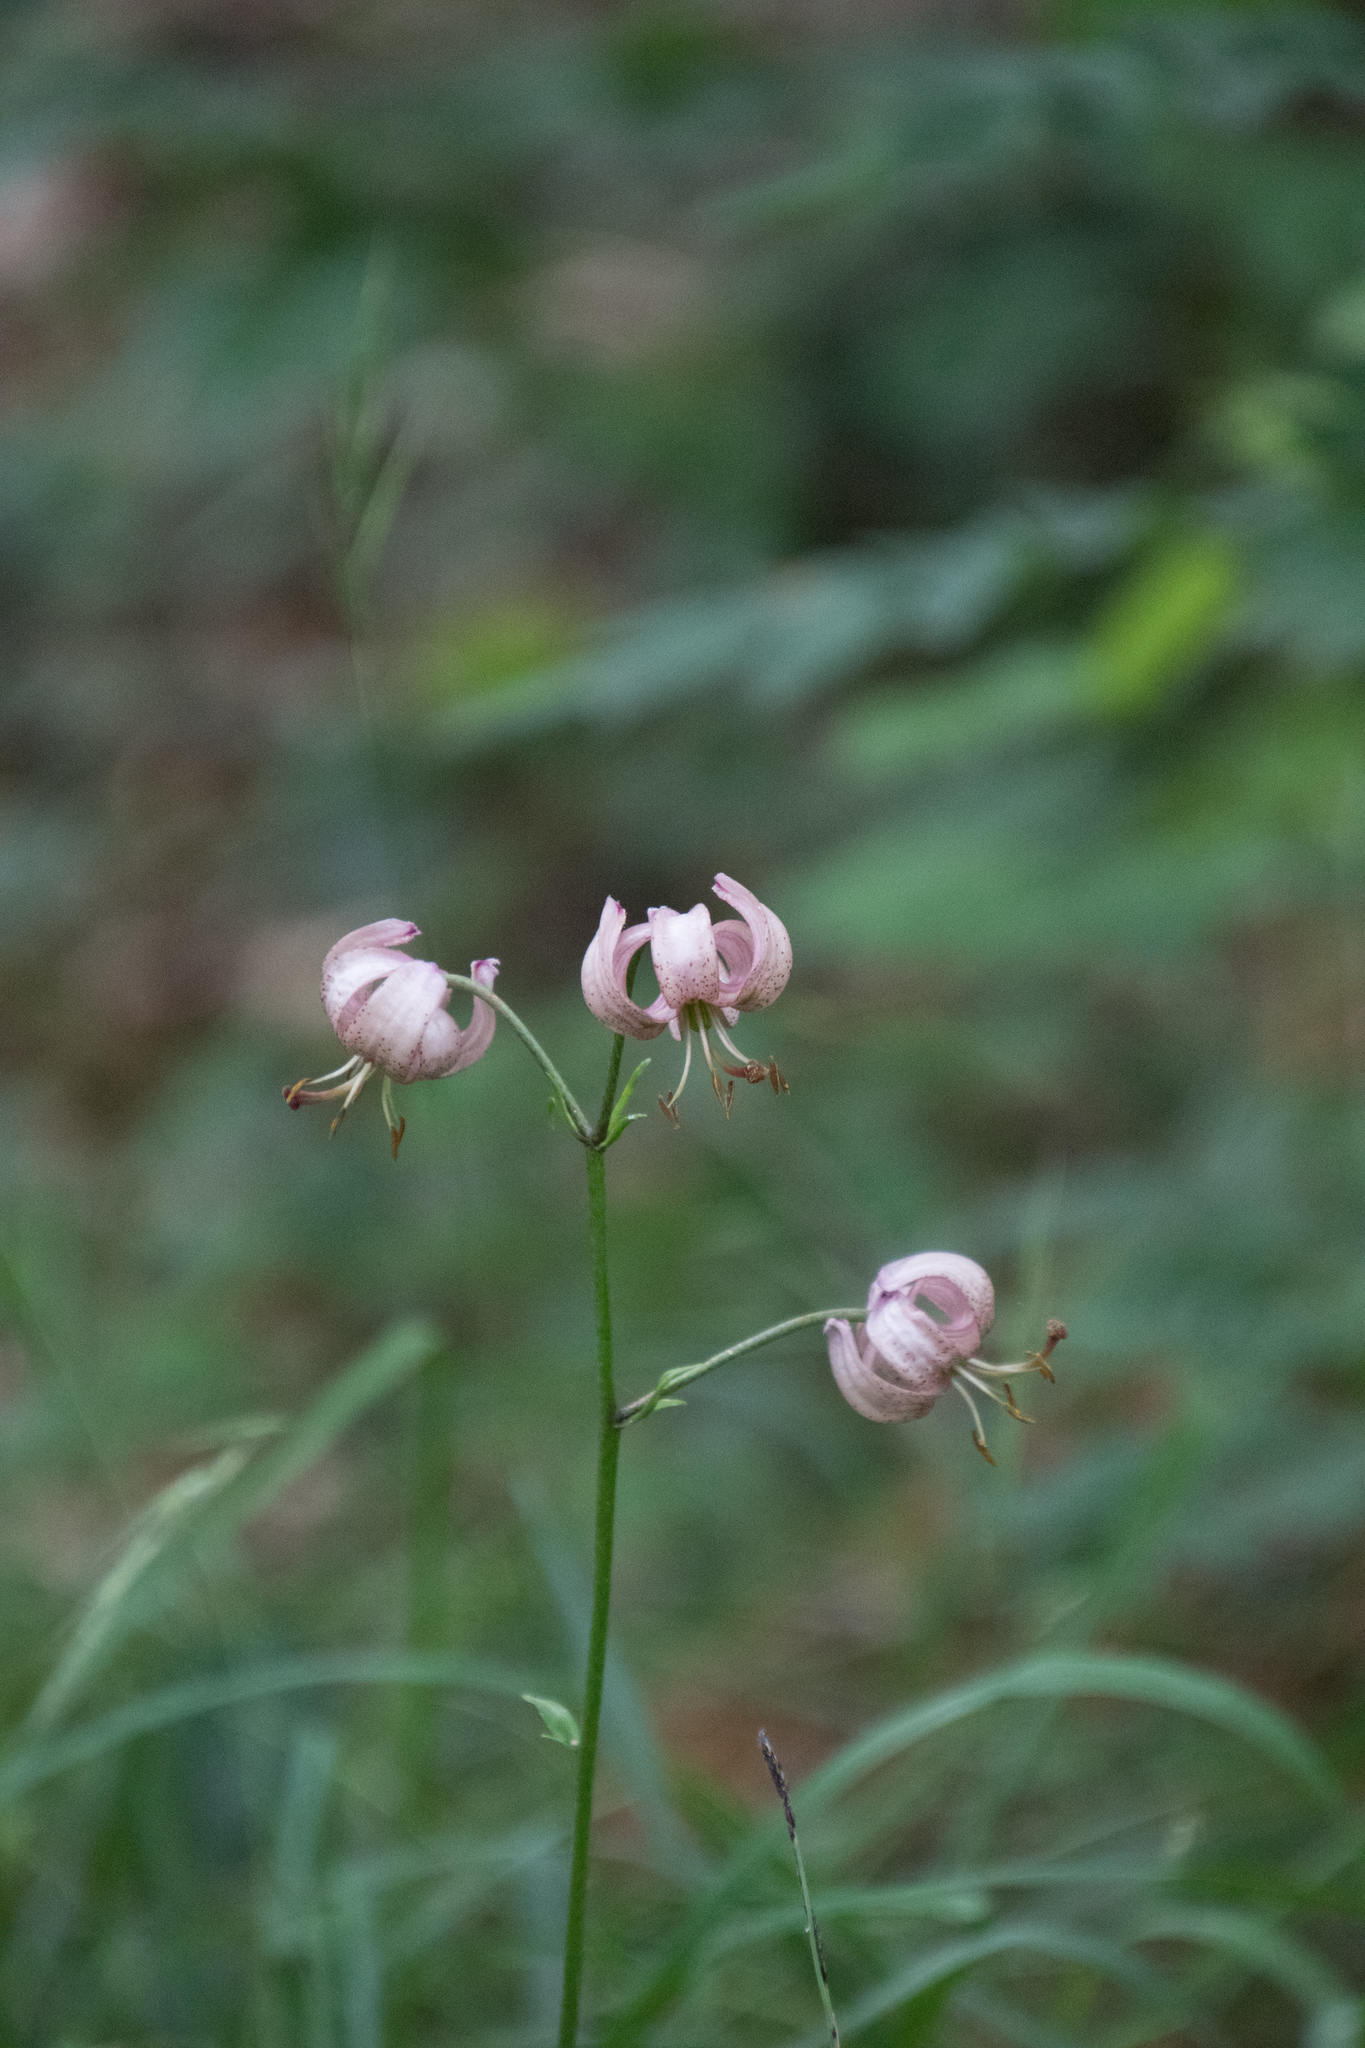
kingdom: Plantae
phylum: Tracheophyta
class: Liliopsida
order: Liliales
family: Liliaceae
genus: Lilium
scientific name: Lilium martagon
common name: Martagon lily
